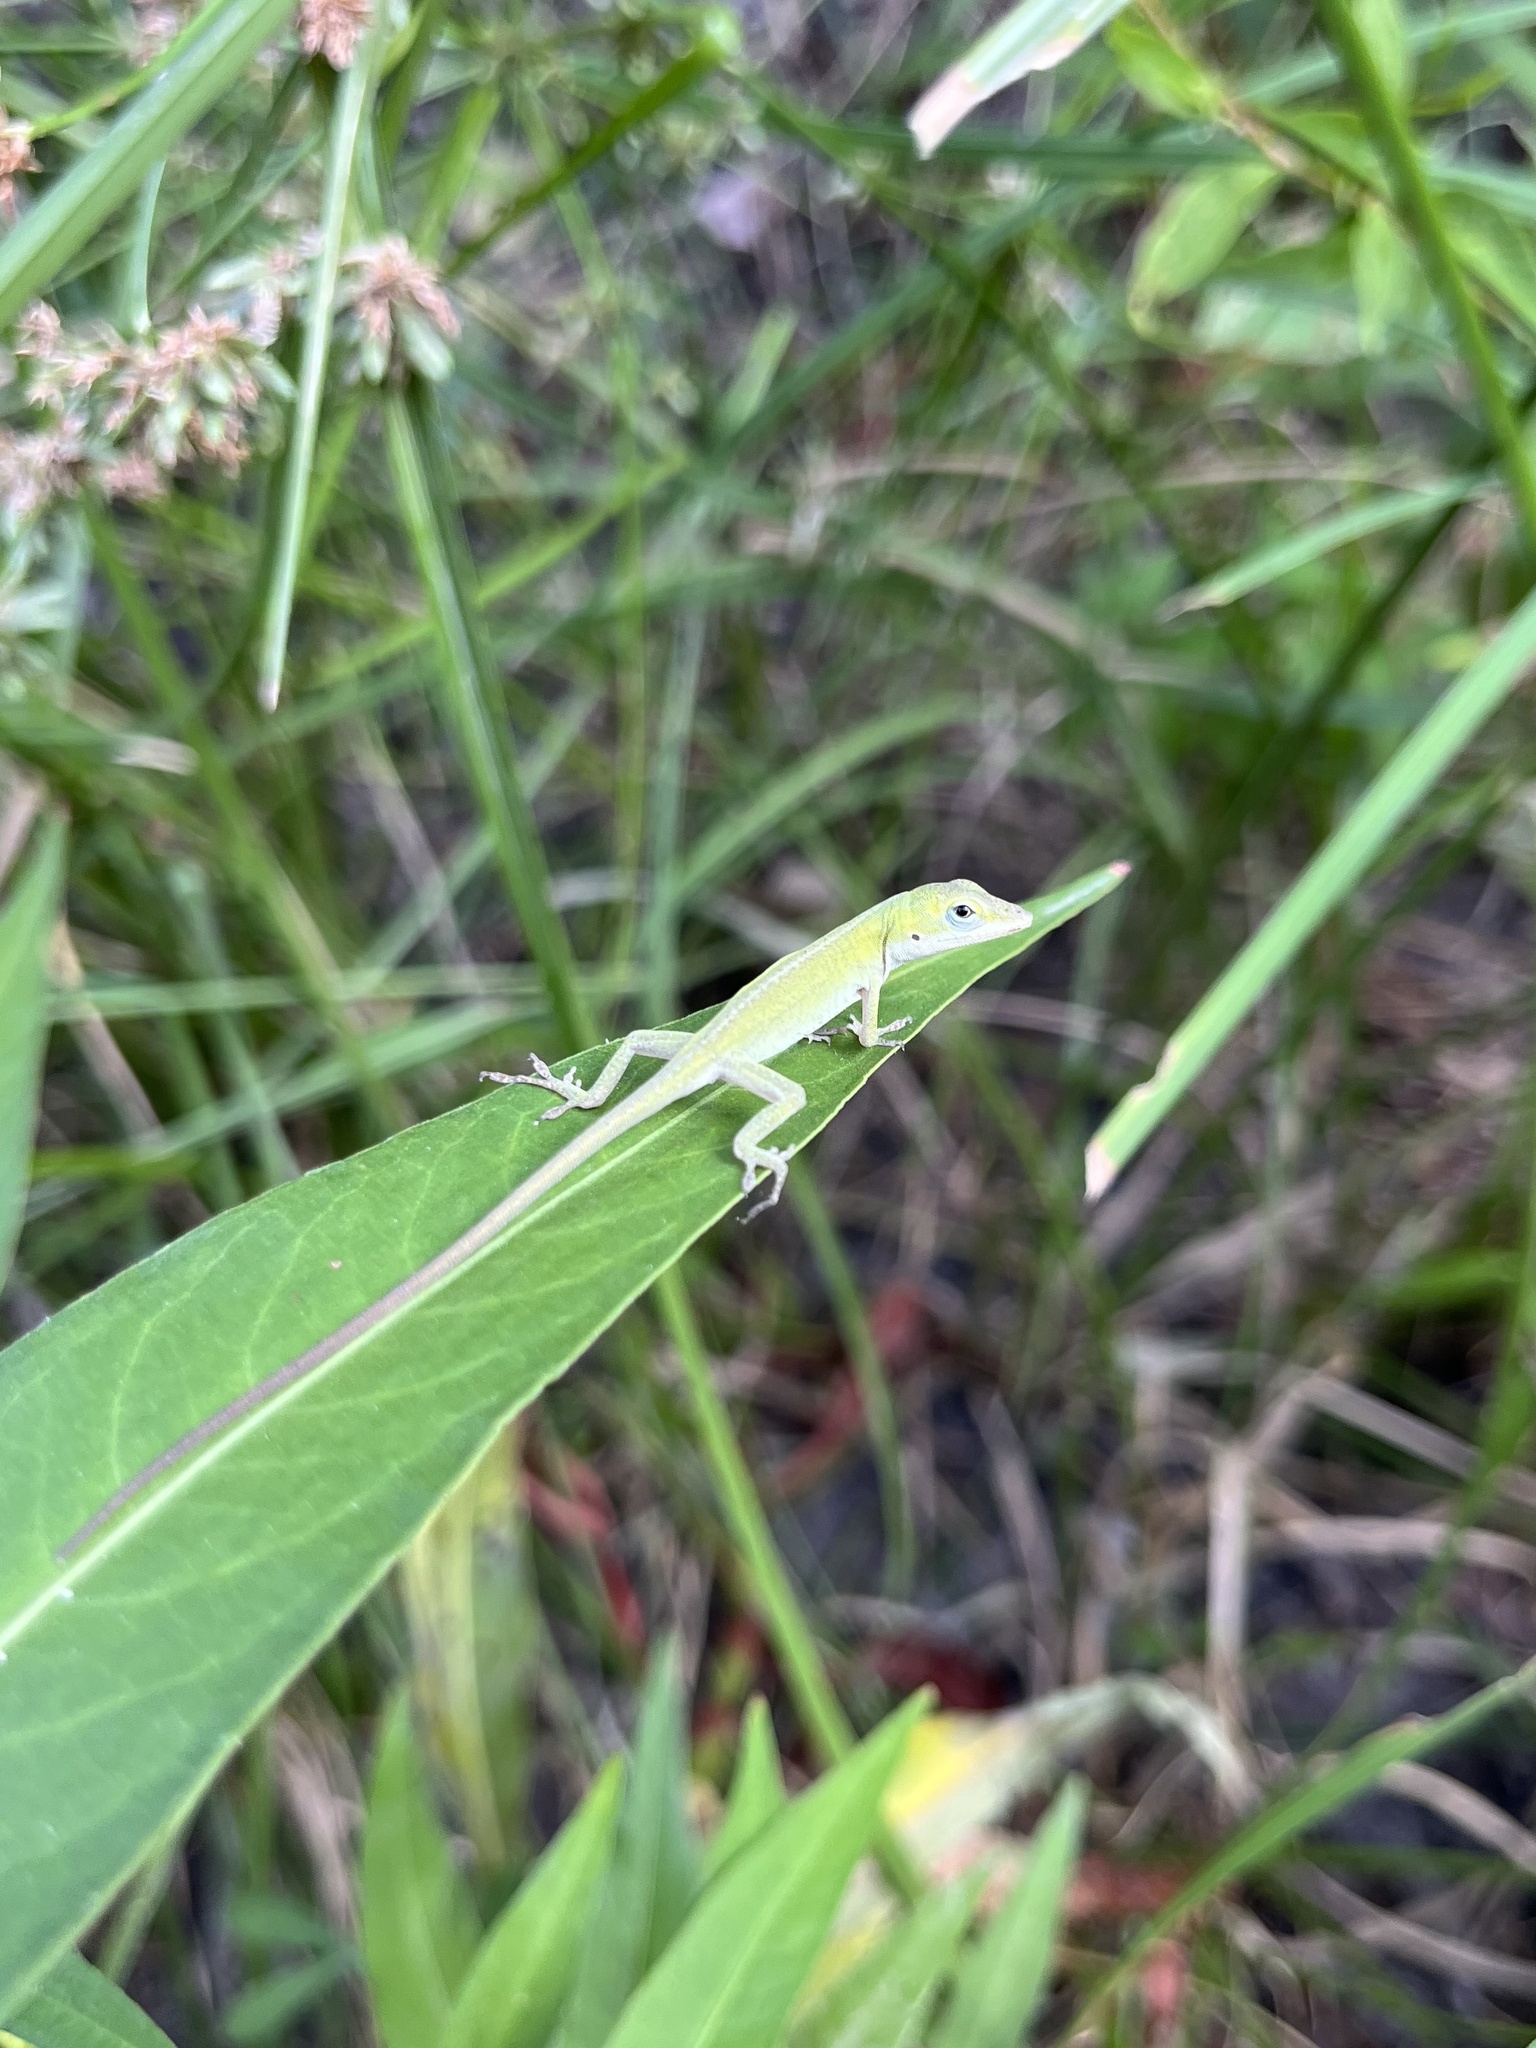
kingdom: Animalia
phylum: Chordata
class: Squamata
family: Dactyloidae
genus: Anolis
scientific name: Anolis carolinensis
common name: Green anole
